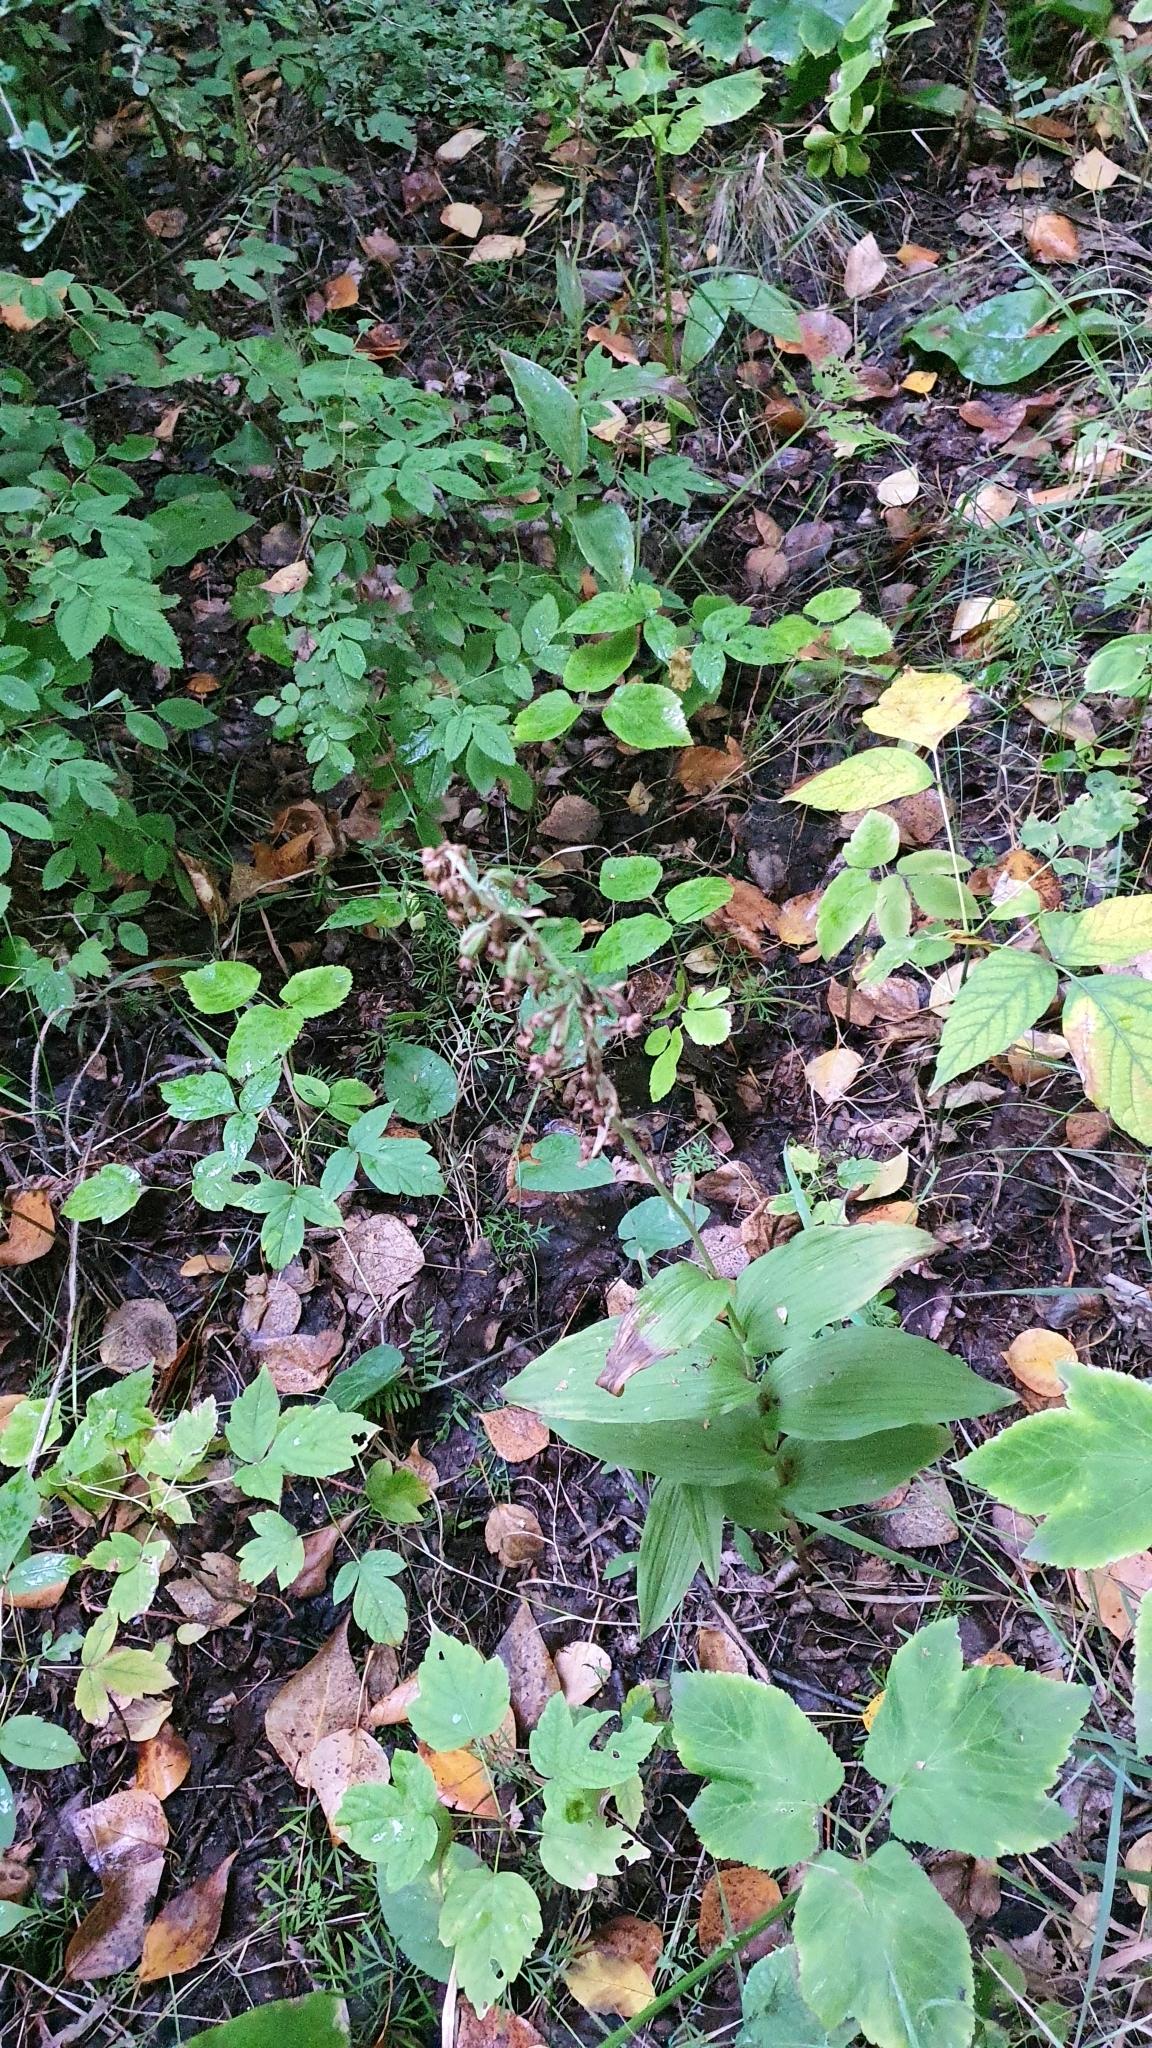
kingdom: Plantae
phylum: Tracheophyta
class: Liliopsida
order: Asparagales
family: Orchidaceae
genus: Epipactis
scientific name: Epipactis helleborine
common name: Broad-leaved helleborine
